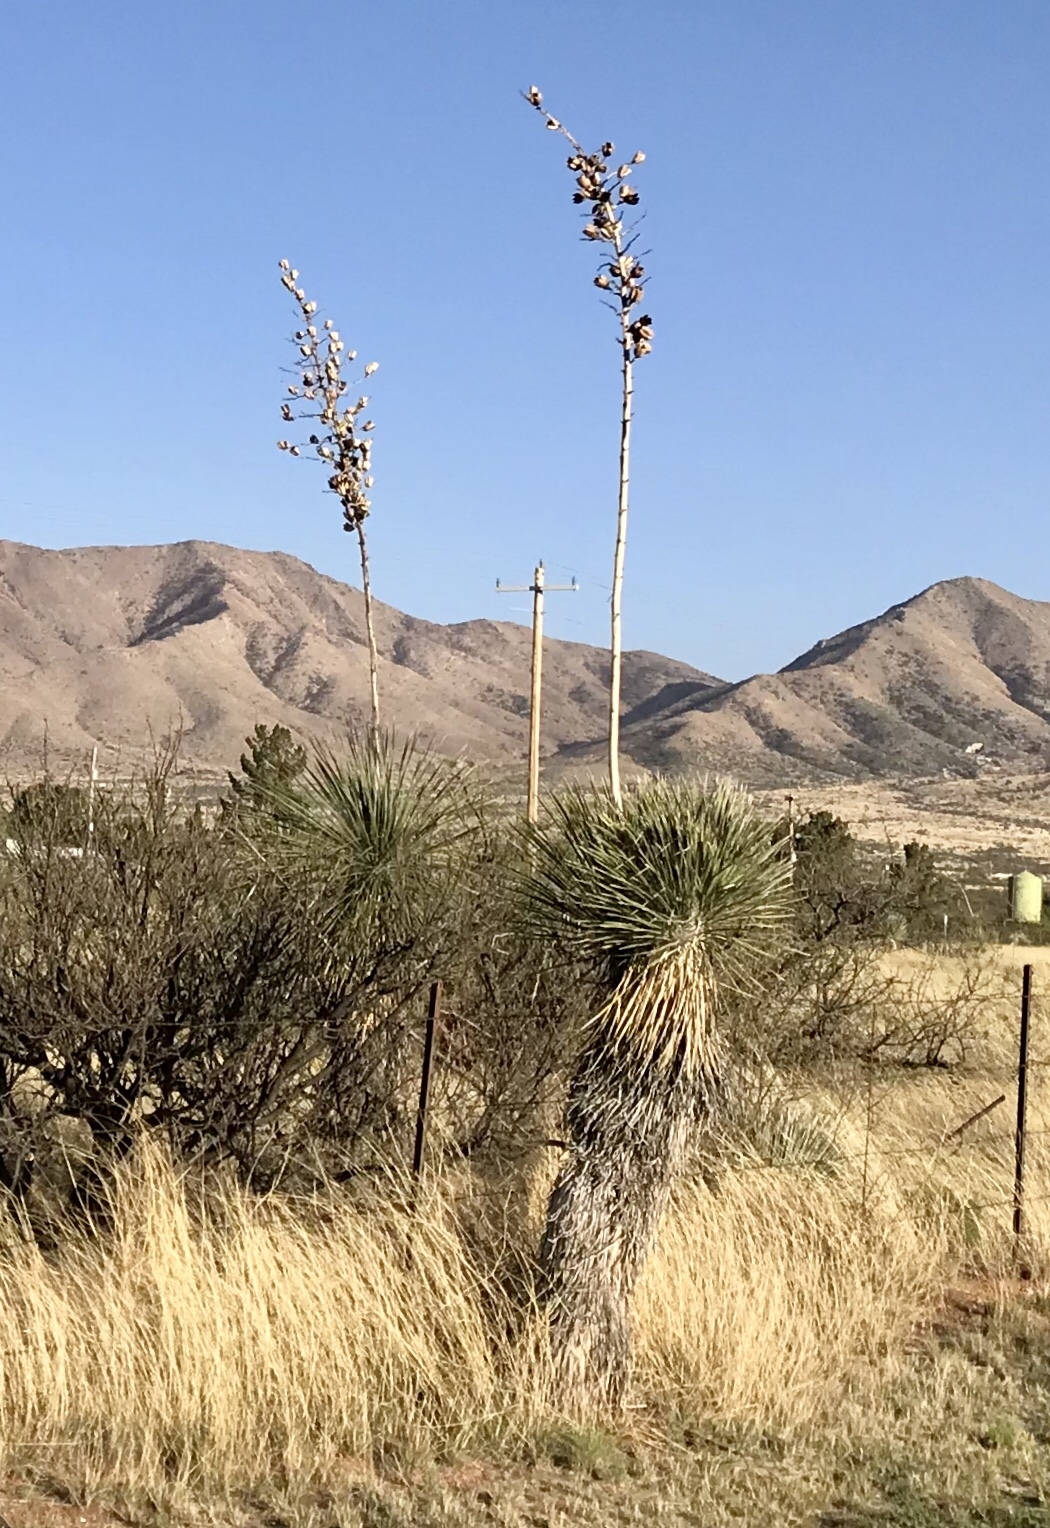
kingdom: Plantae
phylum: Tracheophyta
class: Liliopsida
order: Asparagales
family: Asparagaceae
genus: Yucca
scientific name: Yucca elata
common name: Palmella
